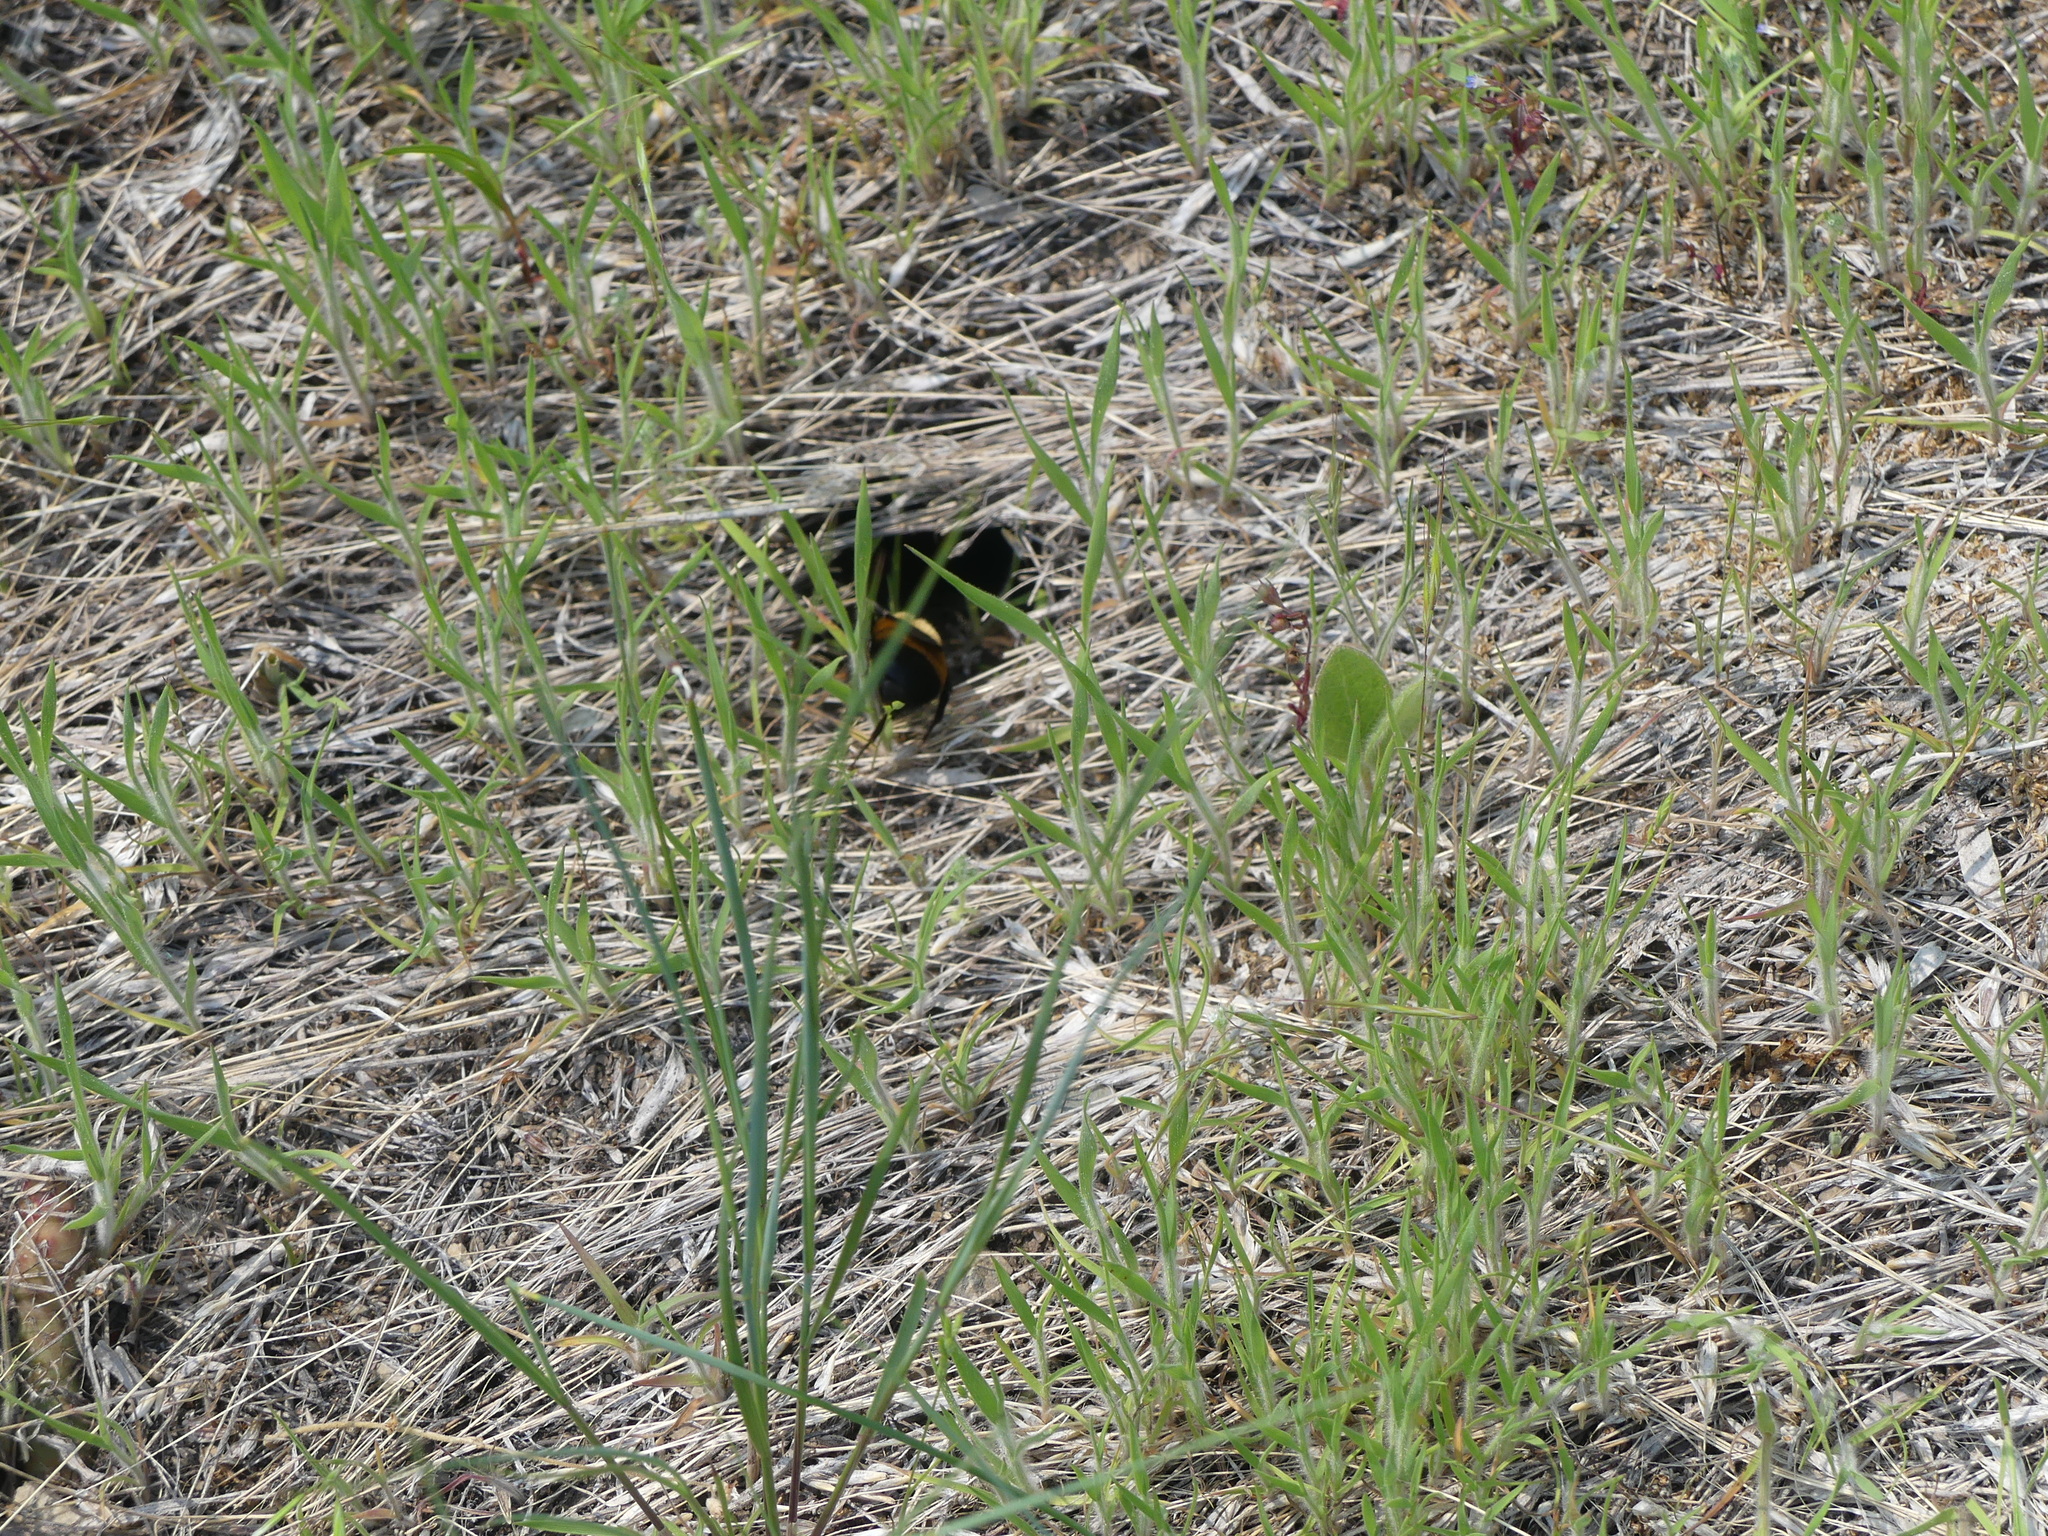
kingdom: Animalia
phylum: Arthropoda
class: Insecta
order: Hymenoptera
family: Apidae
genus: Bombus
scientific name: Bombus nevadensis
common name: Nevada bumble bee
